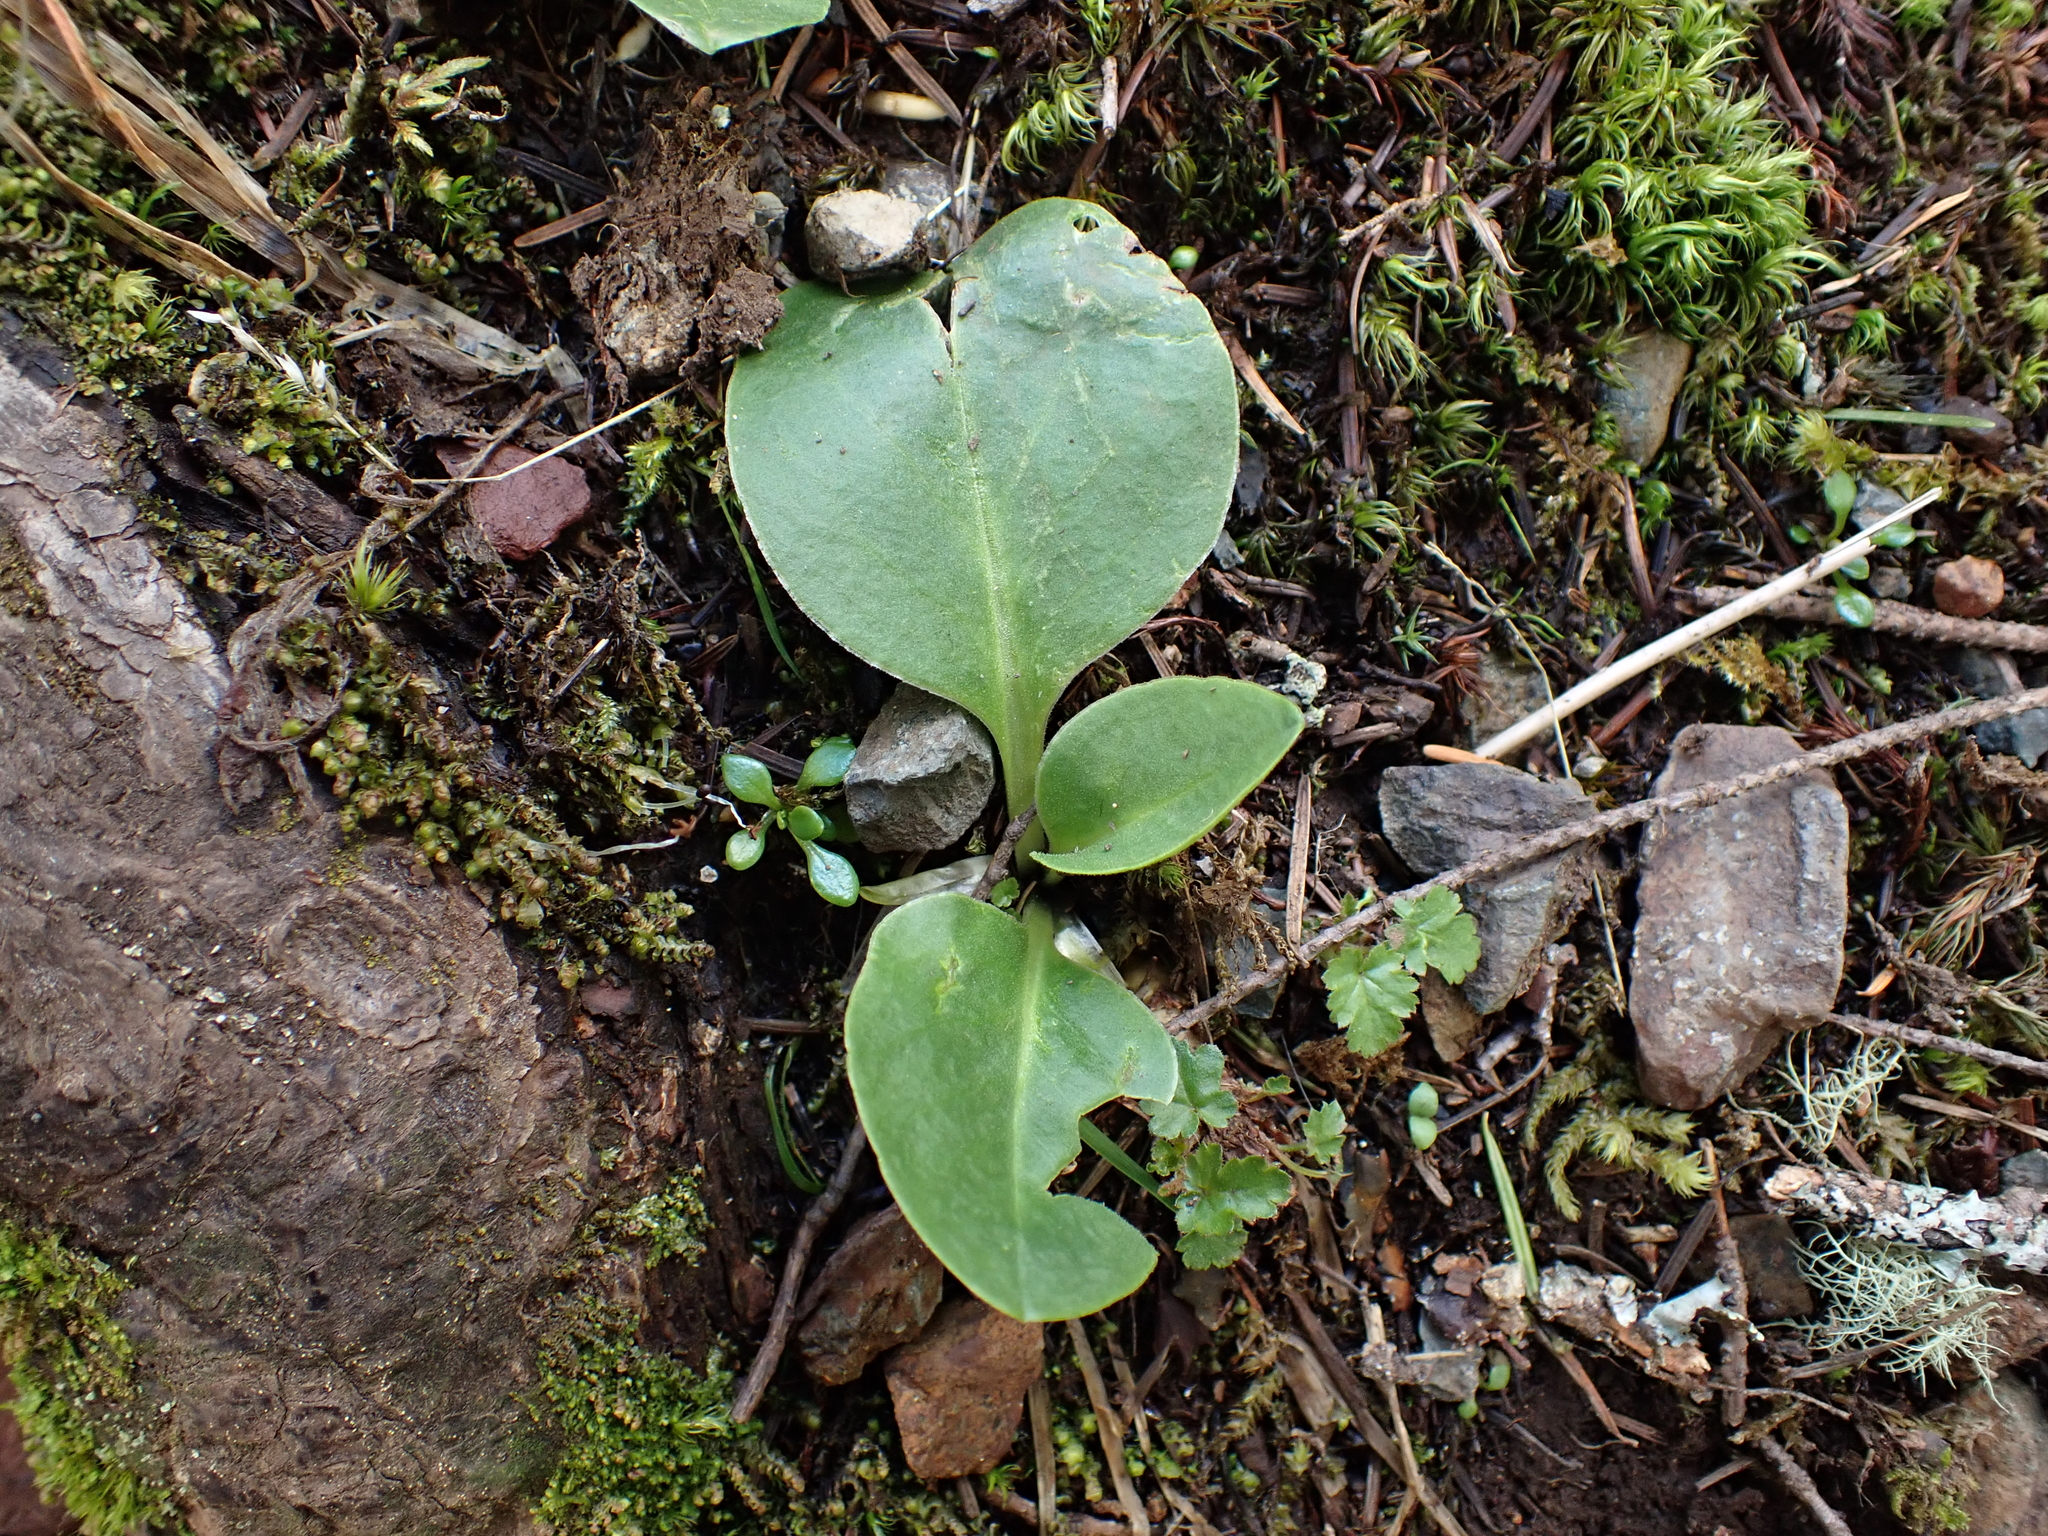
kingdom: Plantae
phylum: Tracheophyta
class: Magnoliopsida
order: Ericales
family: Primulaceae
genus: Dodecatheon
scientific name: Dodecatheon hendersonii
